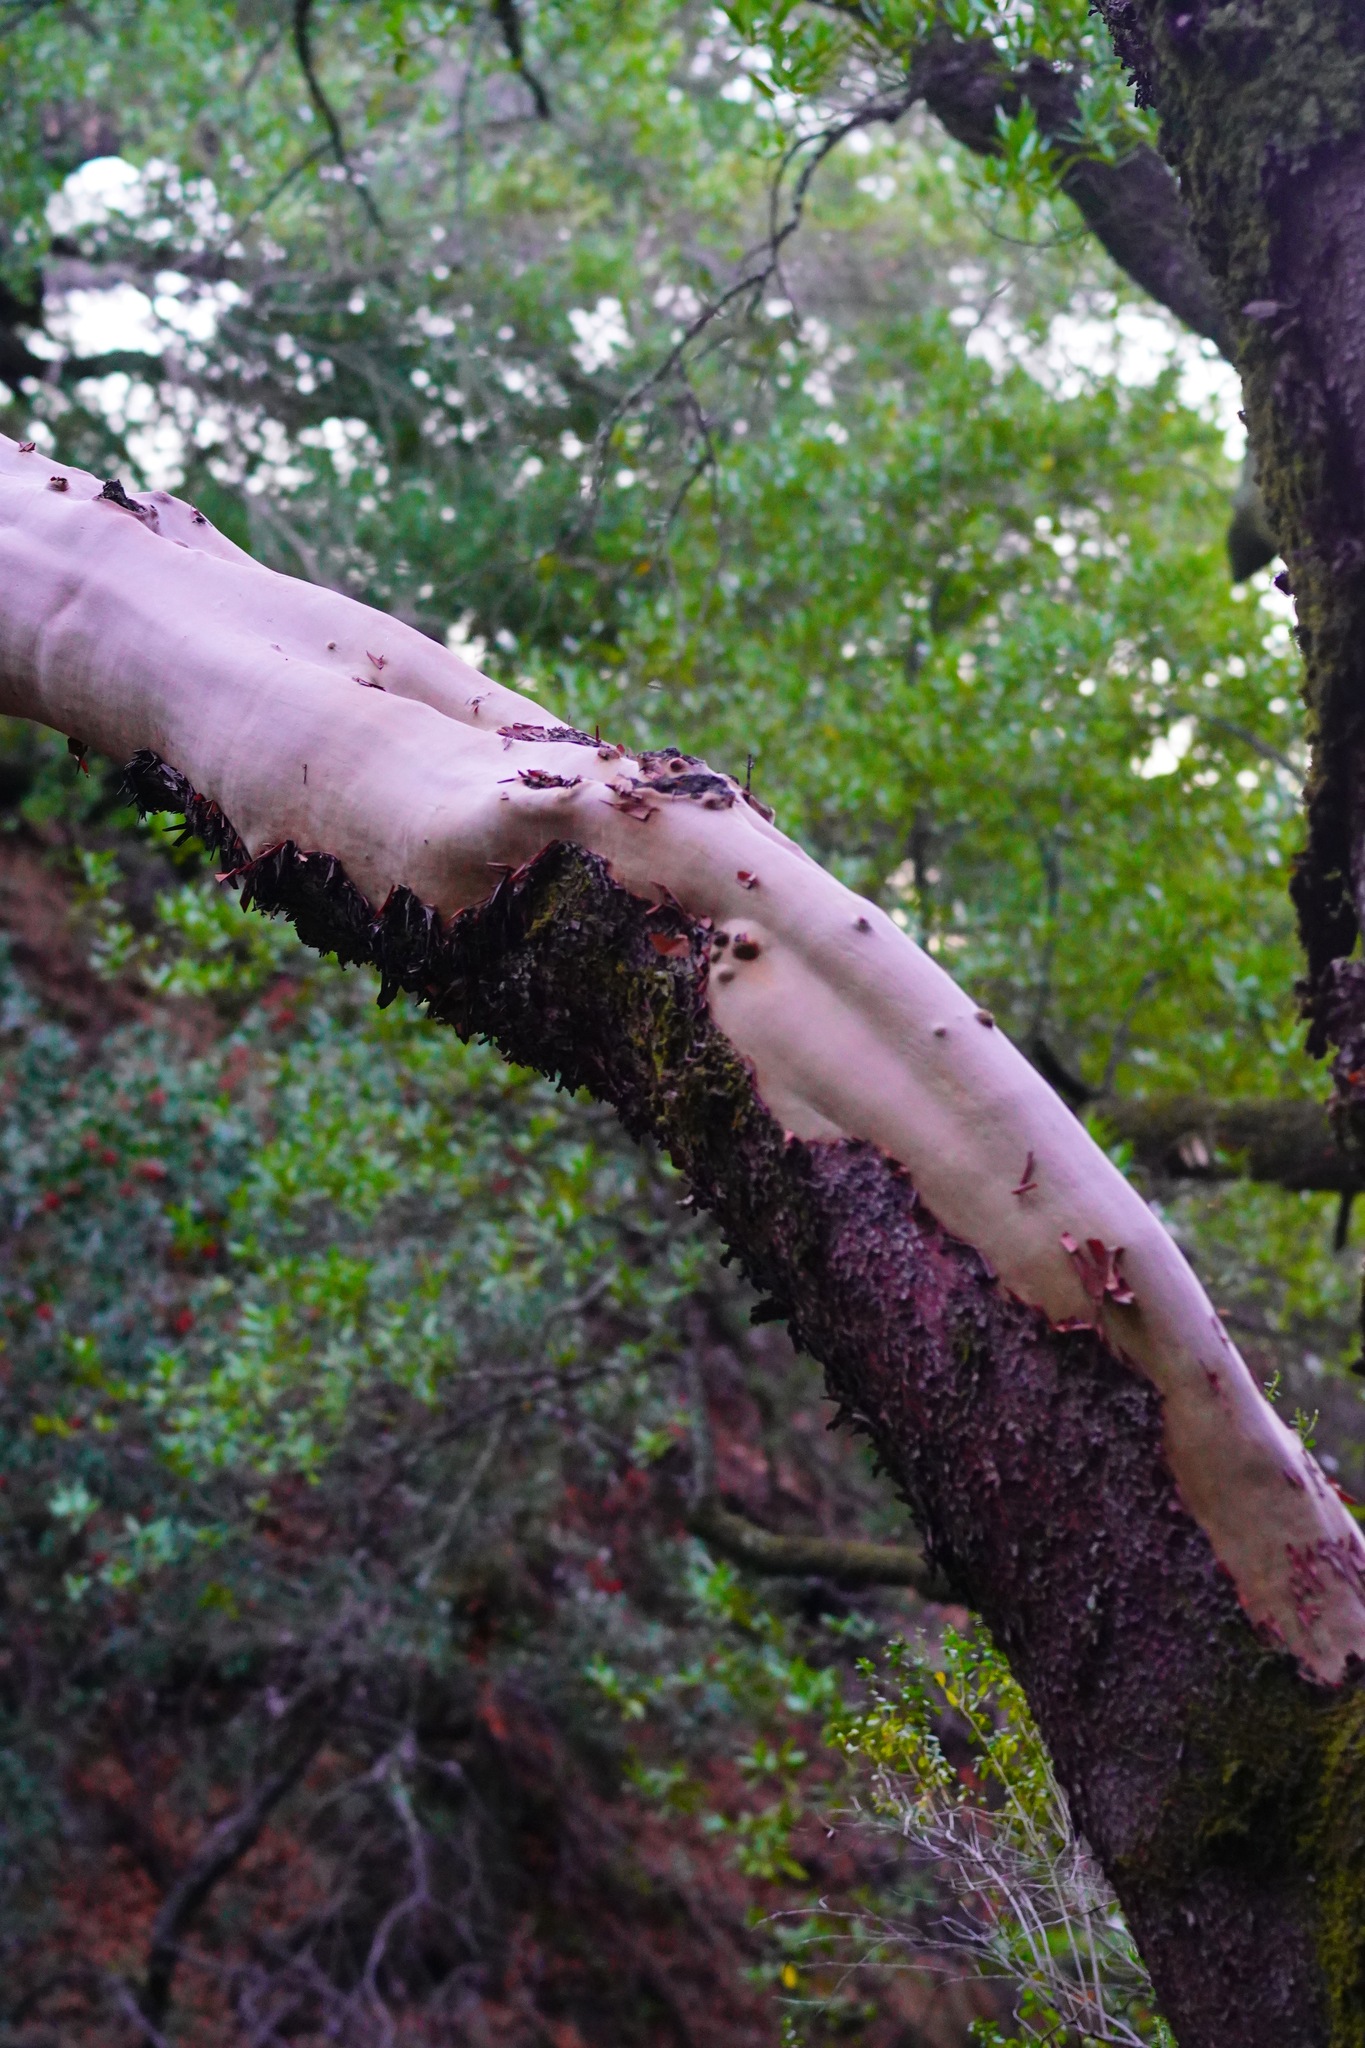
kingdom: Plantae
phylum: Tracheophyta
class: Magnoliopsida
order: Ericales
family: Ericaceae
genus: Arbutus
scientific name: Arbutus menziesii
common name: Pacific madrone
